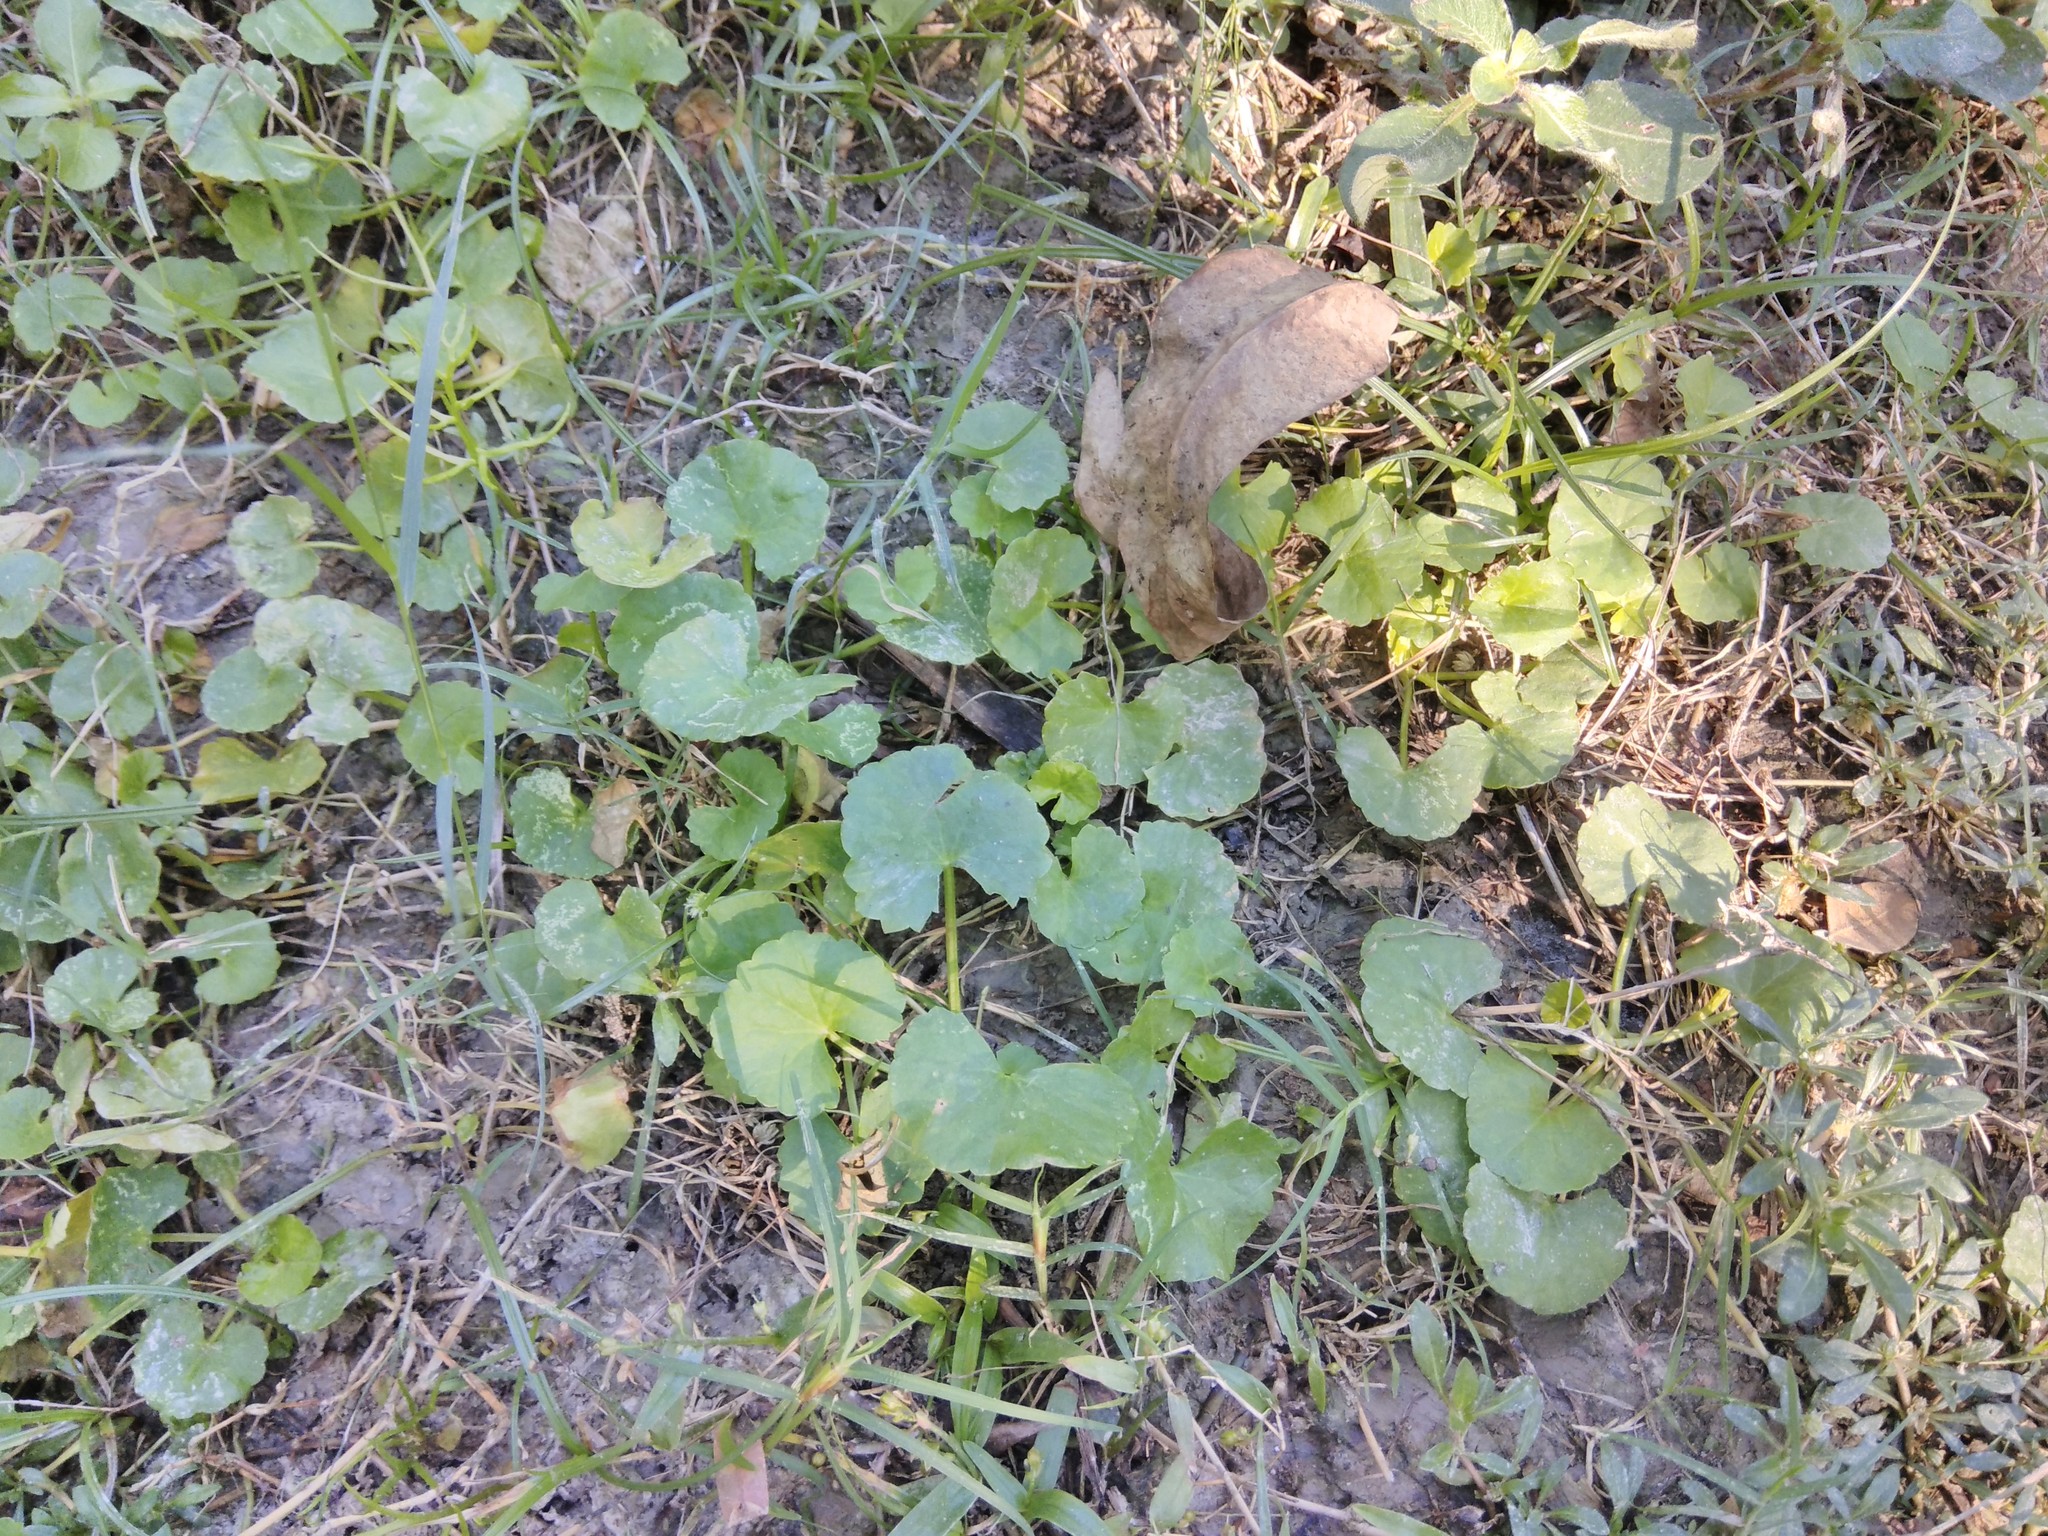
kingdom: Plantae
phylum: Tracheophyta
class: Magnoliopsida
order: Apiales
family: Apiaceae
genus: Centella
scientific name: Centella asiatica
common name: Spadeleaf
